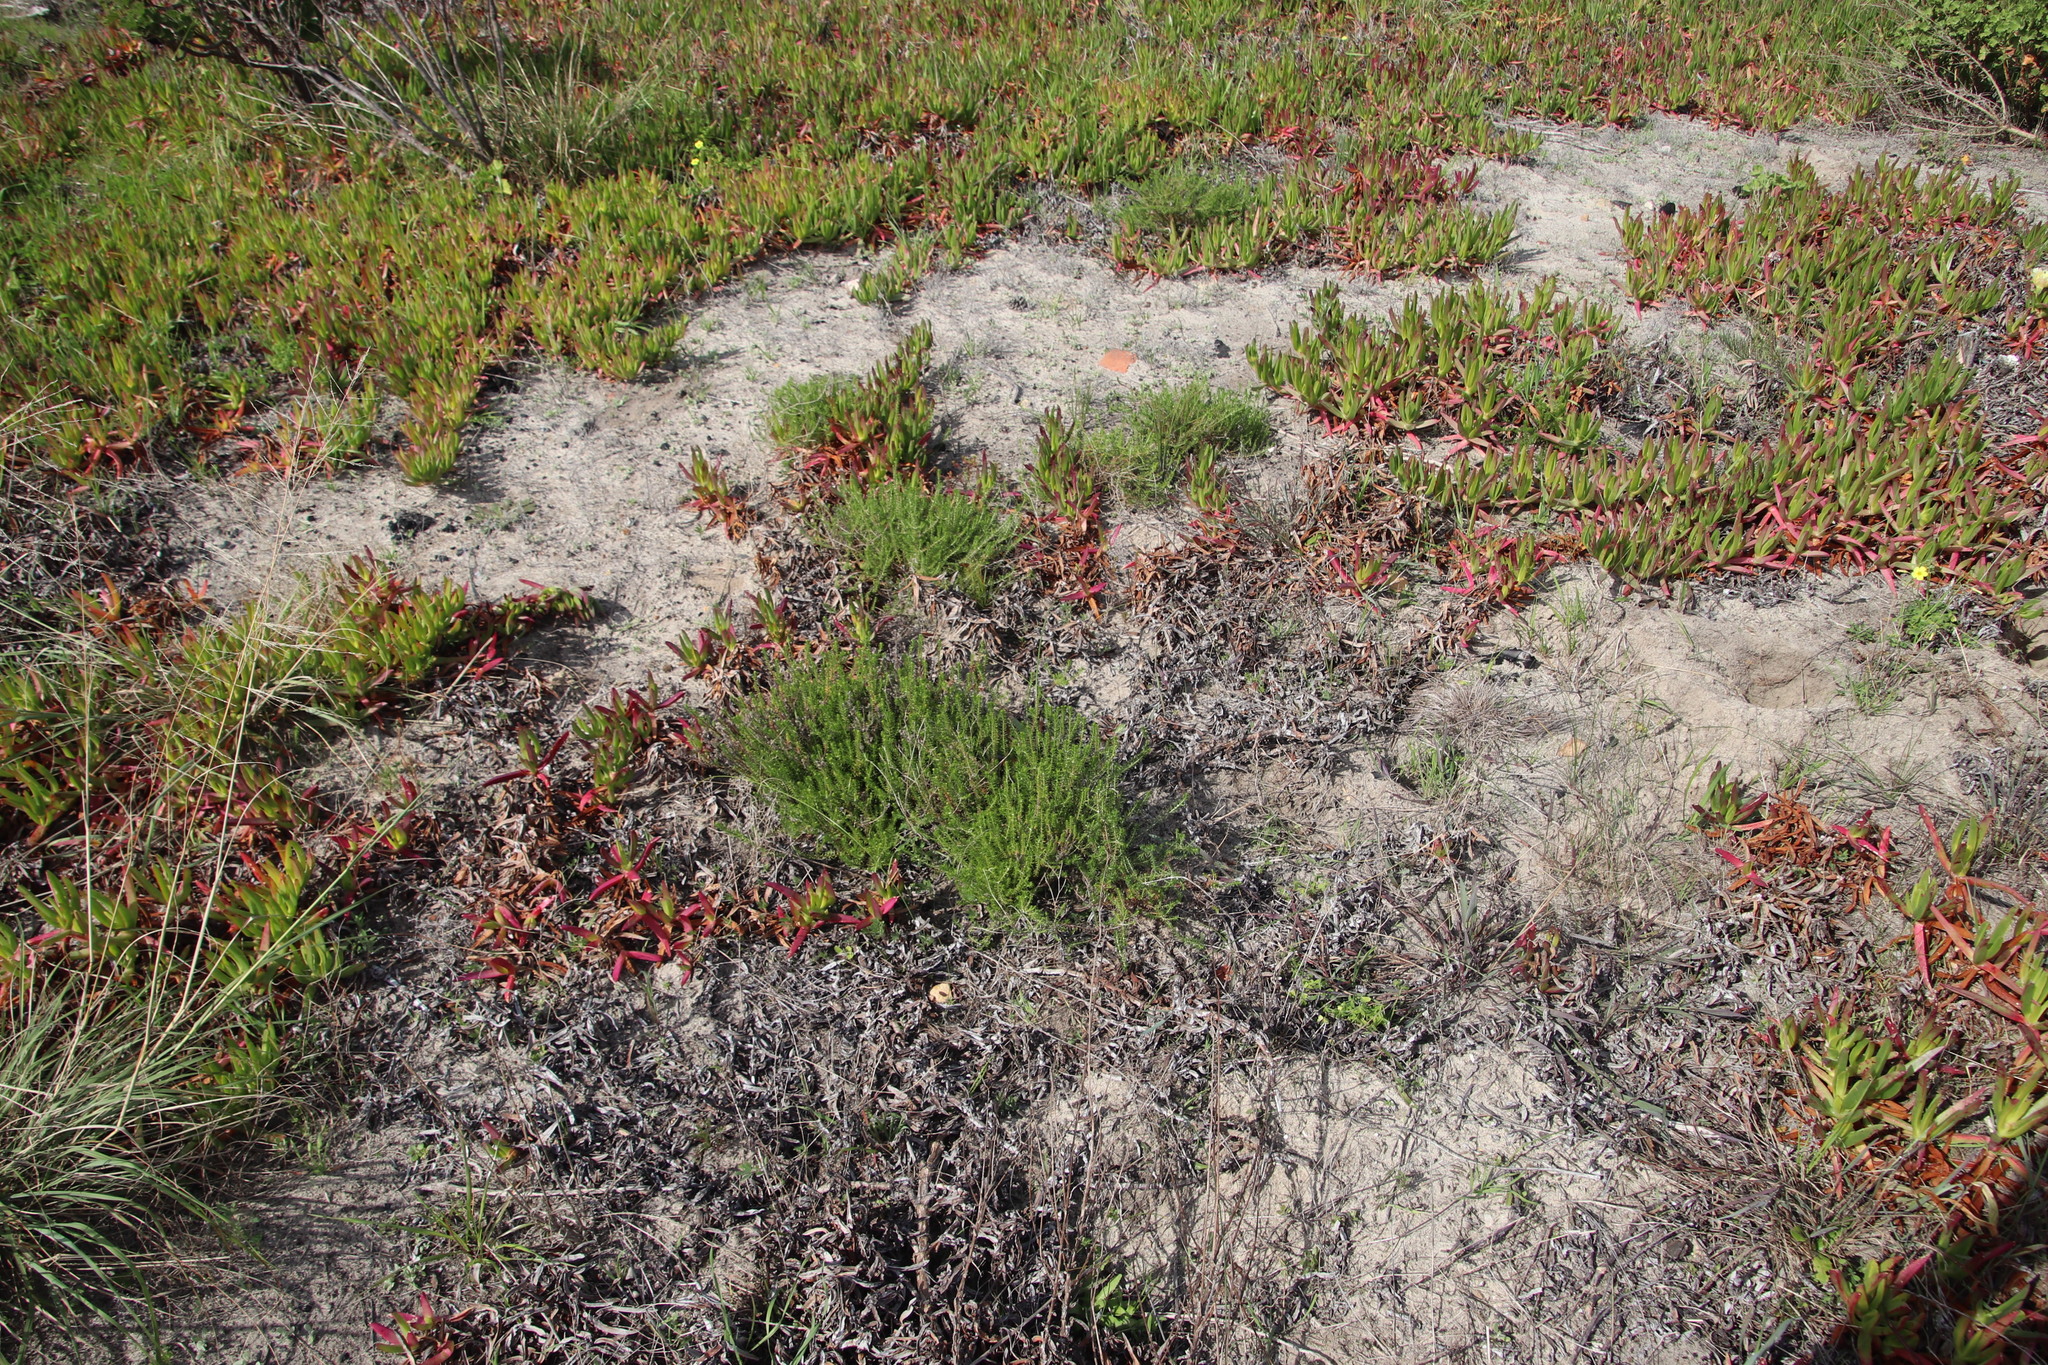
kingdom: Plantae
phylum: Tracheophyta
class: Magnoliopsida
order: Asterales
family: Asteraceae
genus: Chrysocoma
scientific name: Chrysocoma cernua
